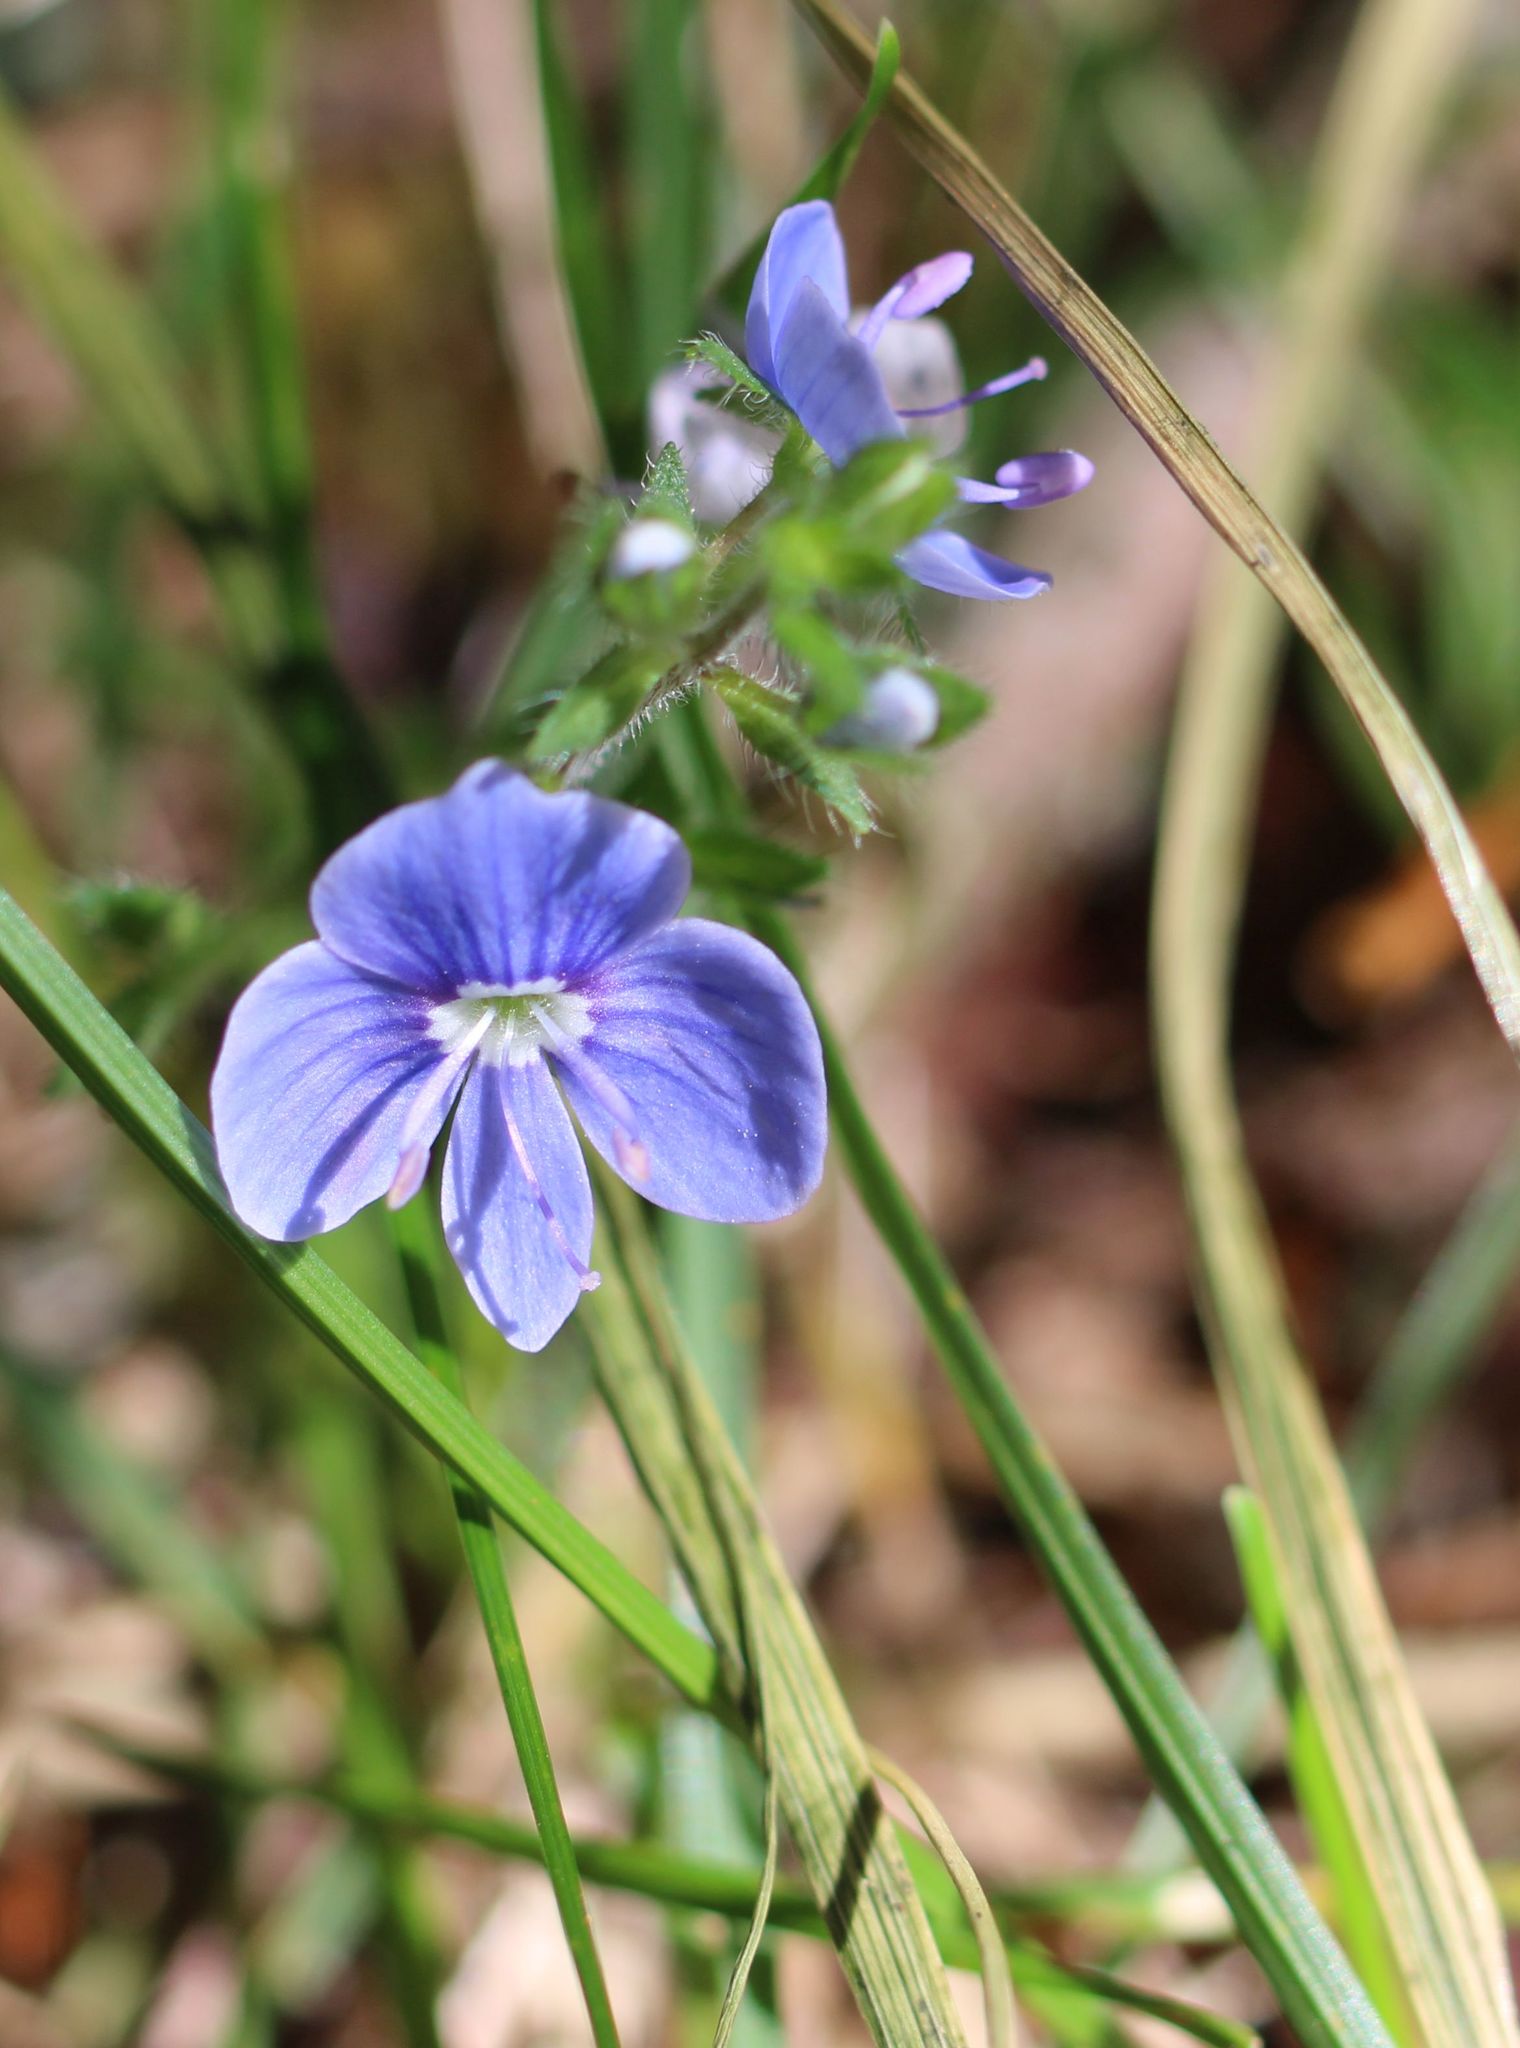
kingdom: Plantae
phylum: Tracheophyta
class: Magnoliopsida
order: Lamiales
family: Plantaginaceae
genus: Veronica
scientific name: Veronica chamaedrys
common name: Germander speedwell
